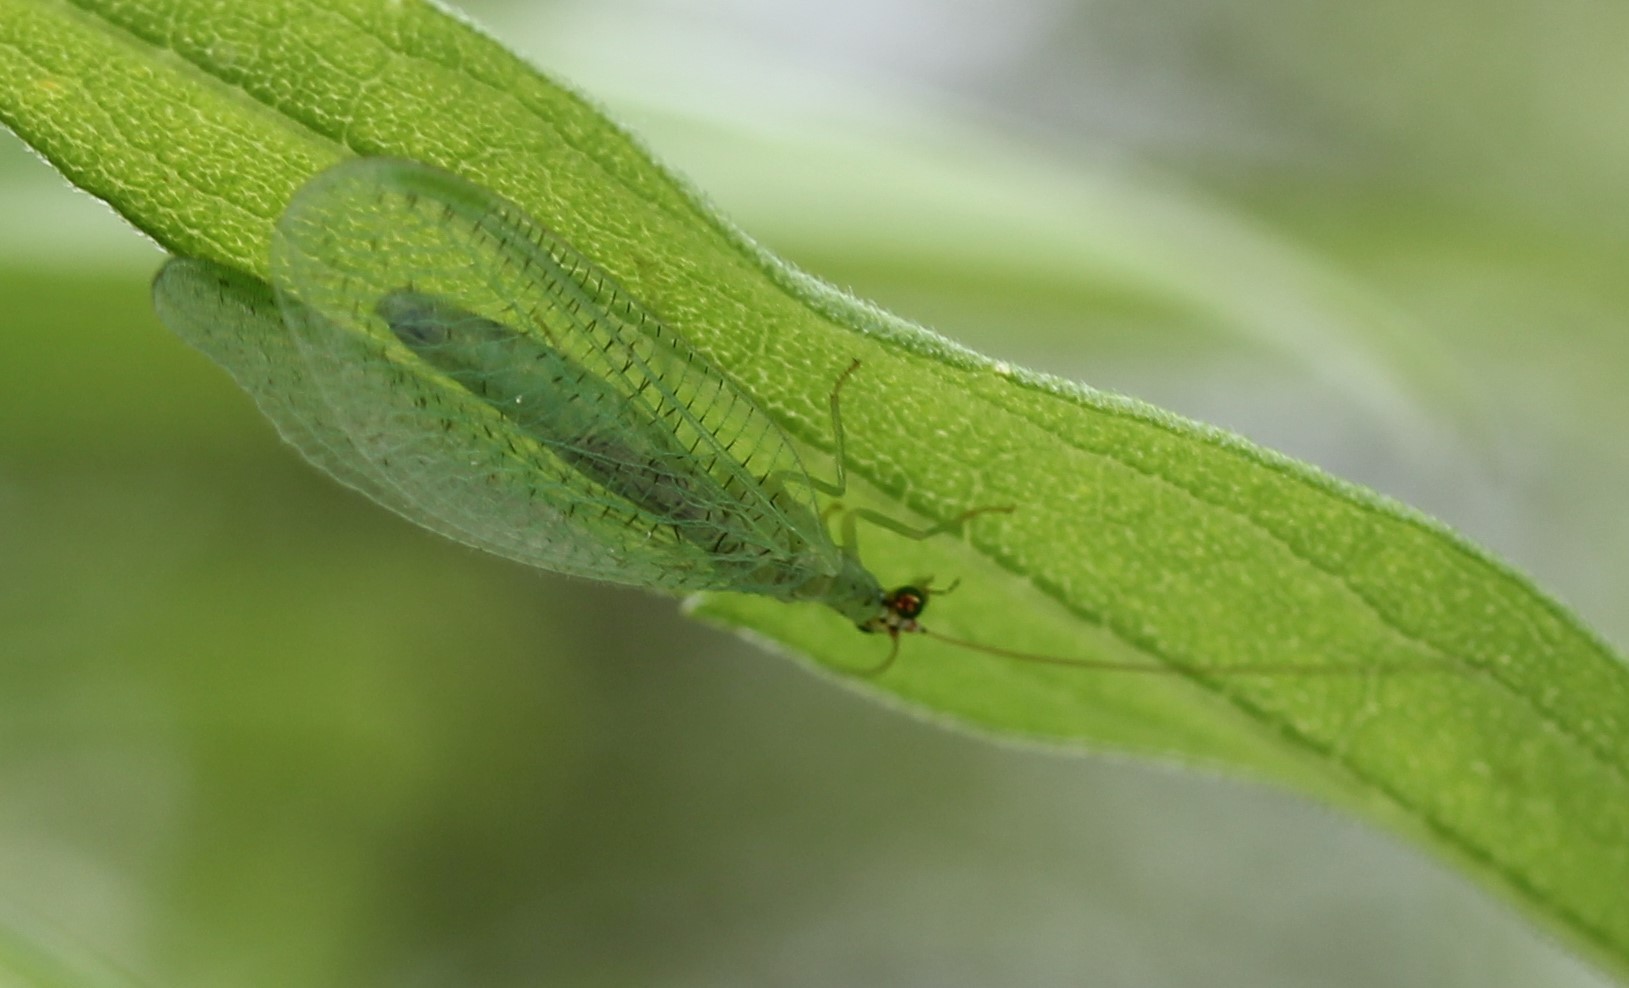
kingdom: Animalia
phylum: Arthropoda
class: Insecta
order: Neuroptera
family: Chrysopidae
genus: Chrysopa
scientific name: Chrysopa oculata
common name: Golden-eyed lacewing
